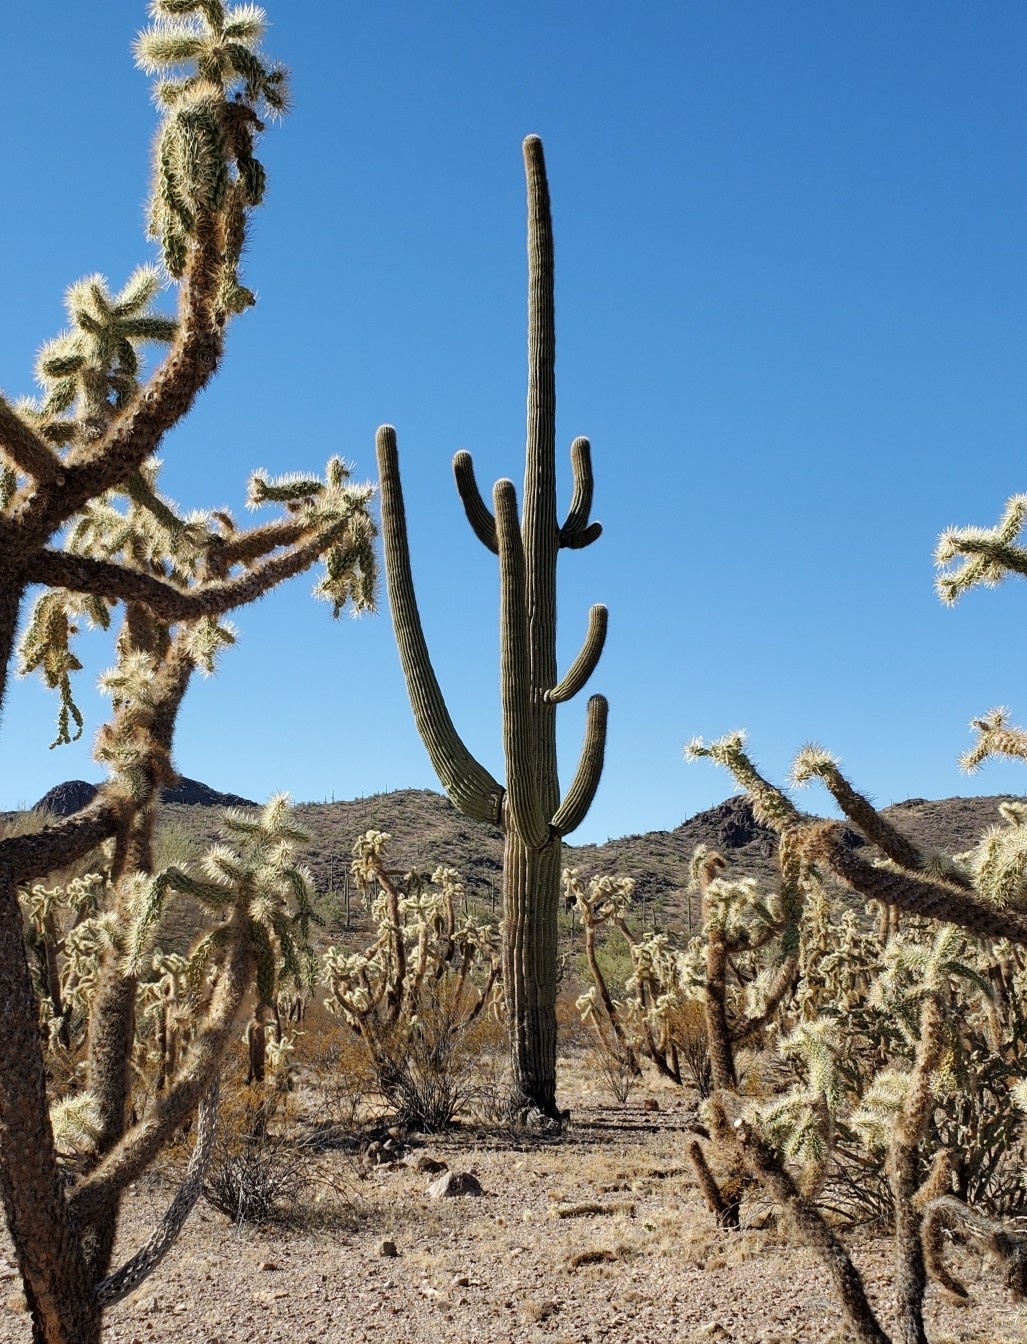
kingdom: Plantae
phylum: Tracheophyta
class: Magnoliopsida
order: Caryophyllales
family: Cactaceae
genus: Carnegiea
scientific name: Carnegiea gigantea
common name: Saguaro
